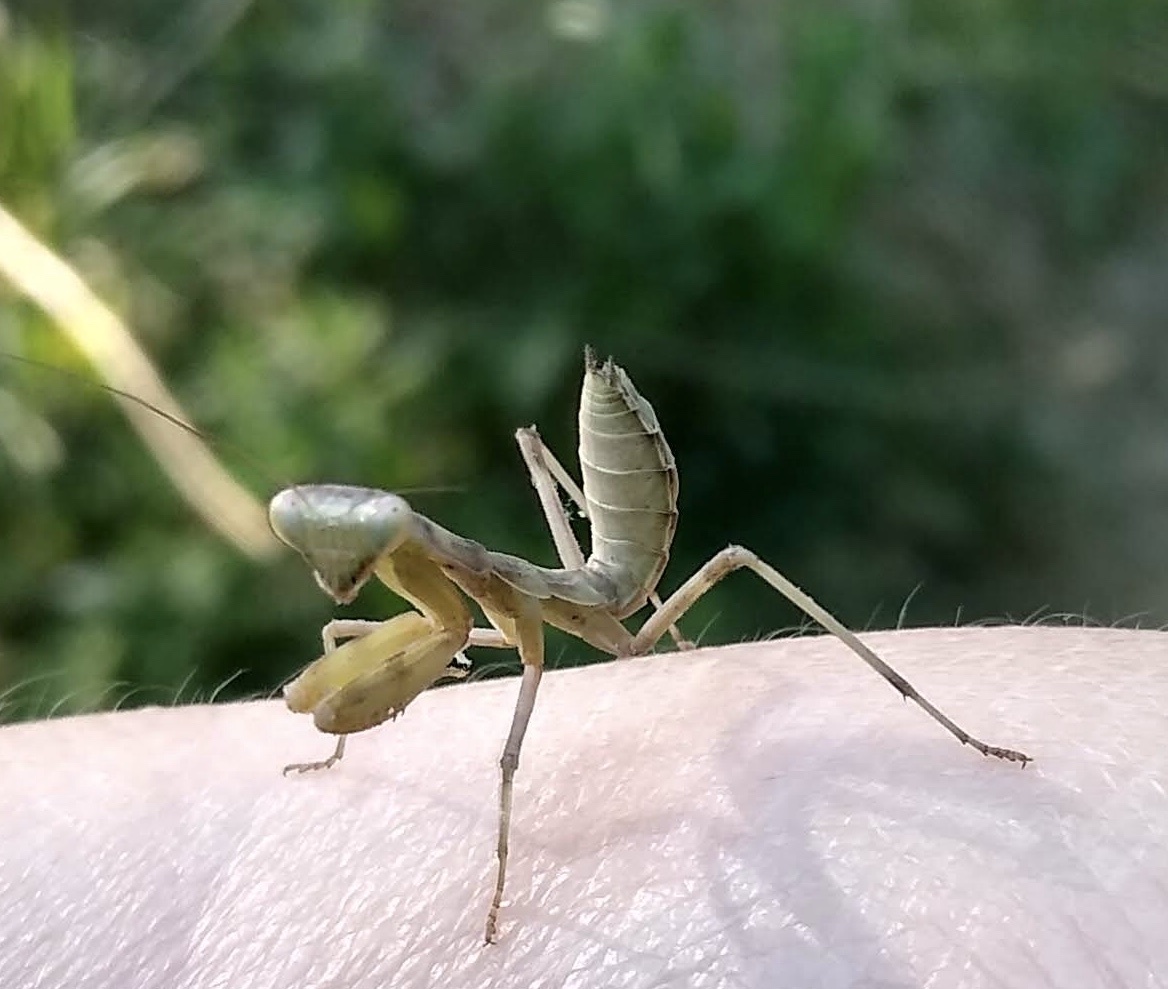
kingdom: Animalia
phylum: Arthropoda
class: Insecta
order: Mantodea
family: Mantidae
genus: Hierodula
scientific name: Hierodula transcaucasica
